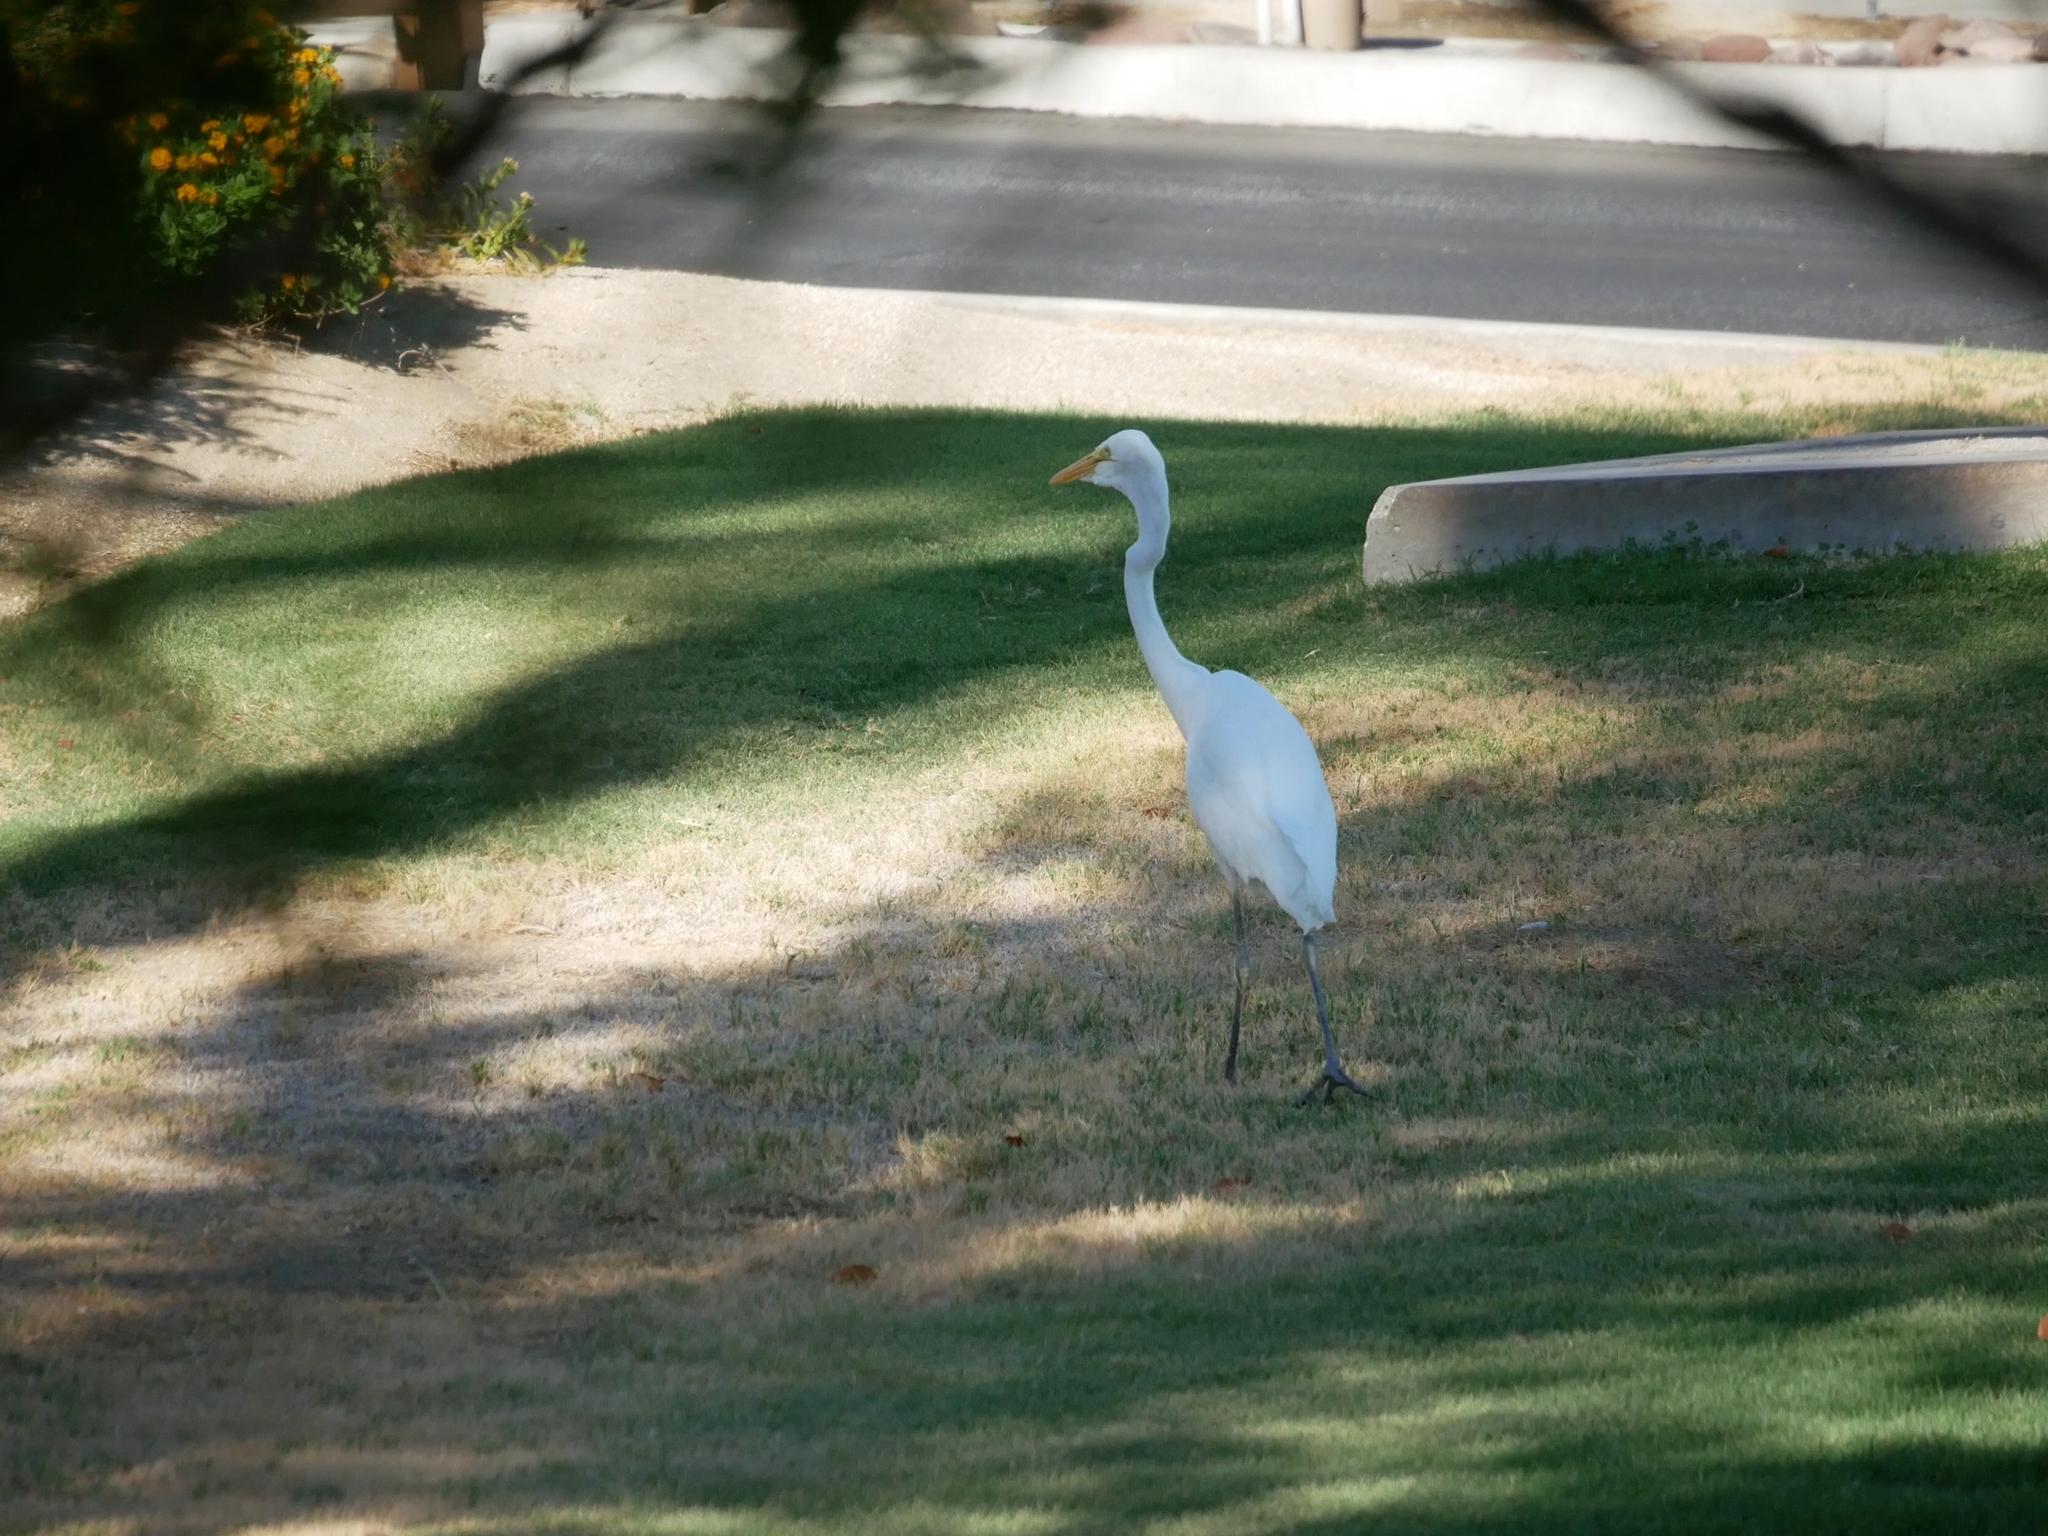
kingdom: Animalia
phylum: Chordata
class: Aves
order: Pelecaniformes
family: Ardeidae
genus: Ardea
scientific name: Ardea alba
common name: Great egret
